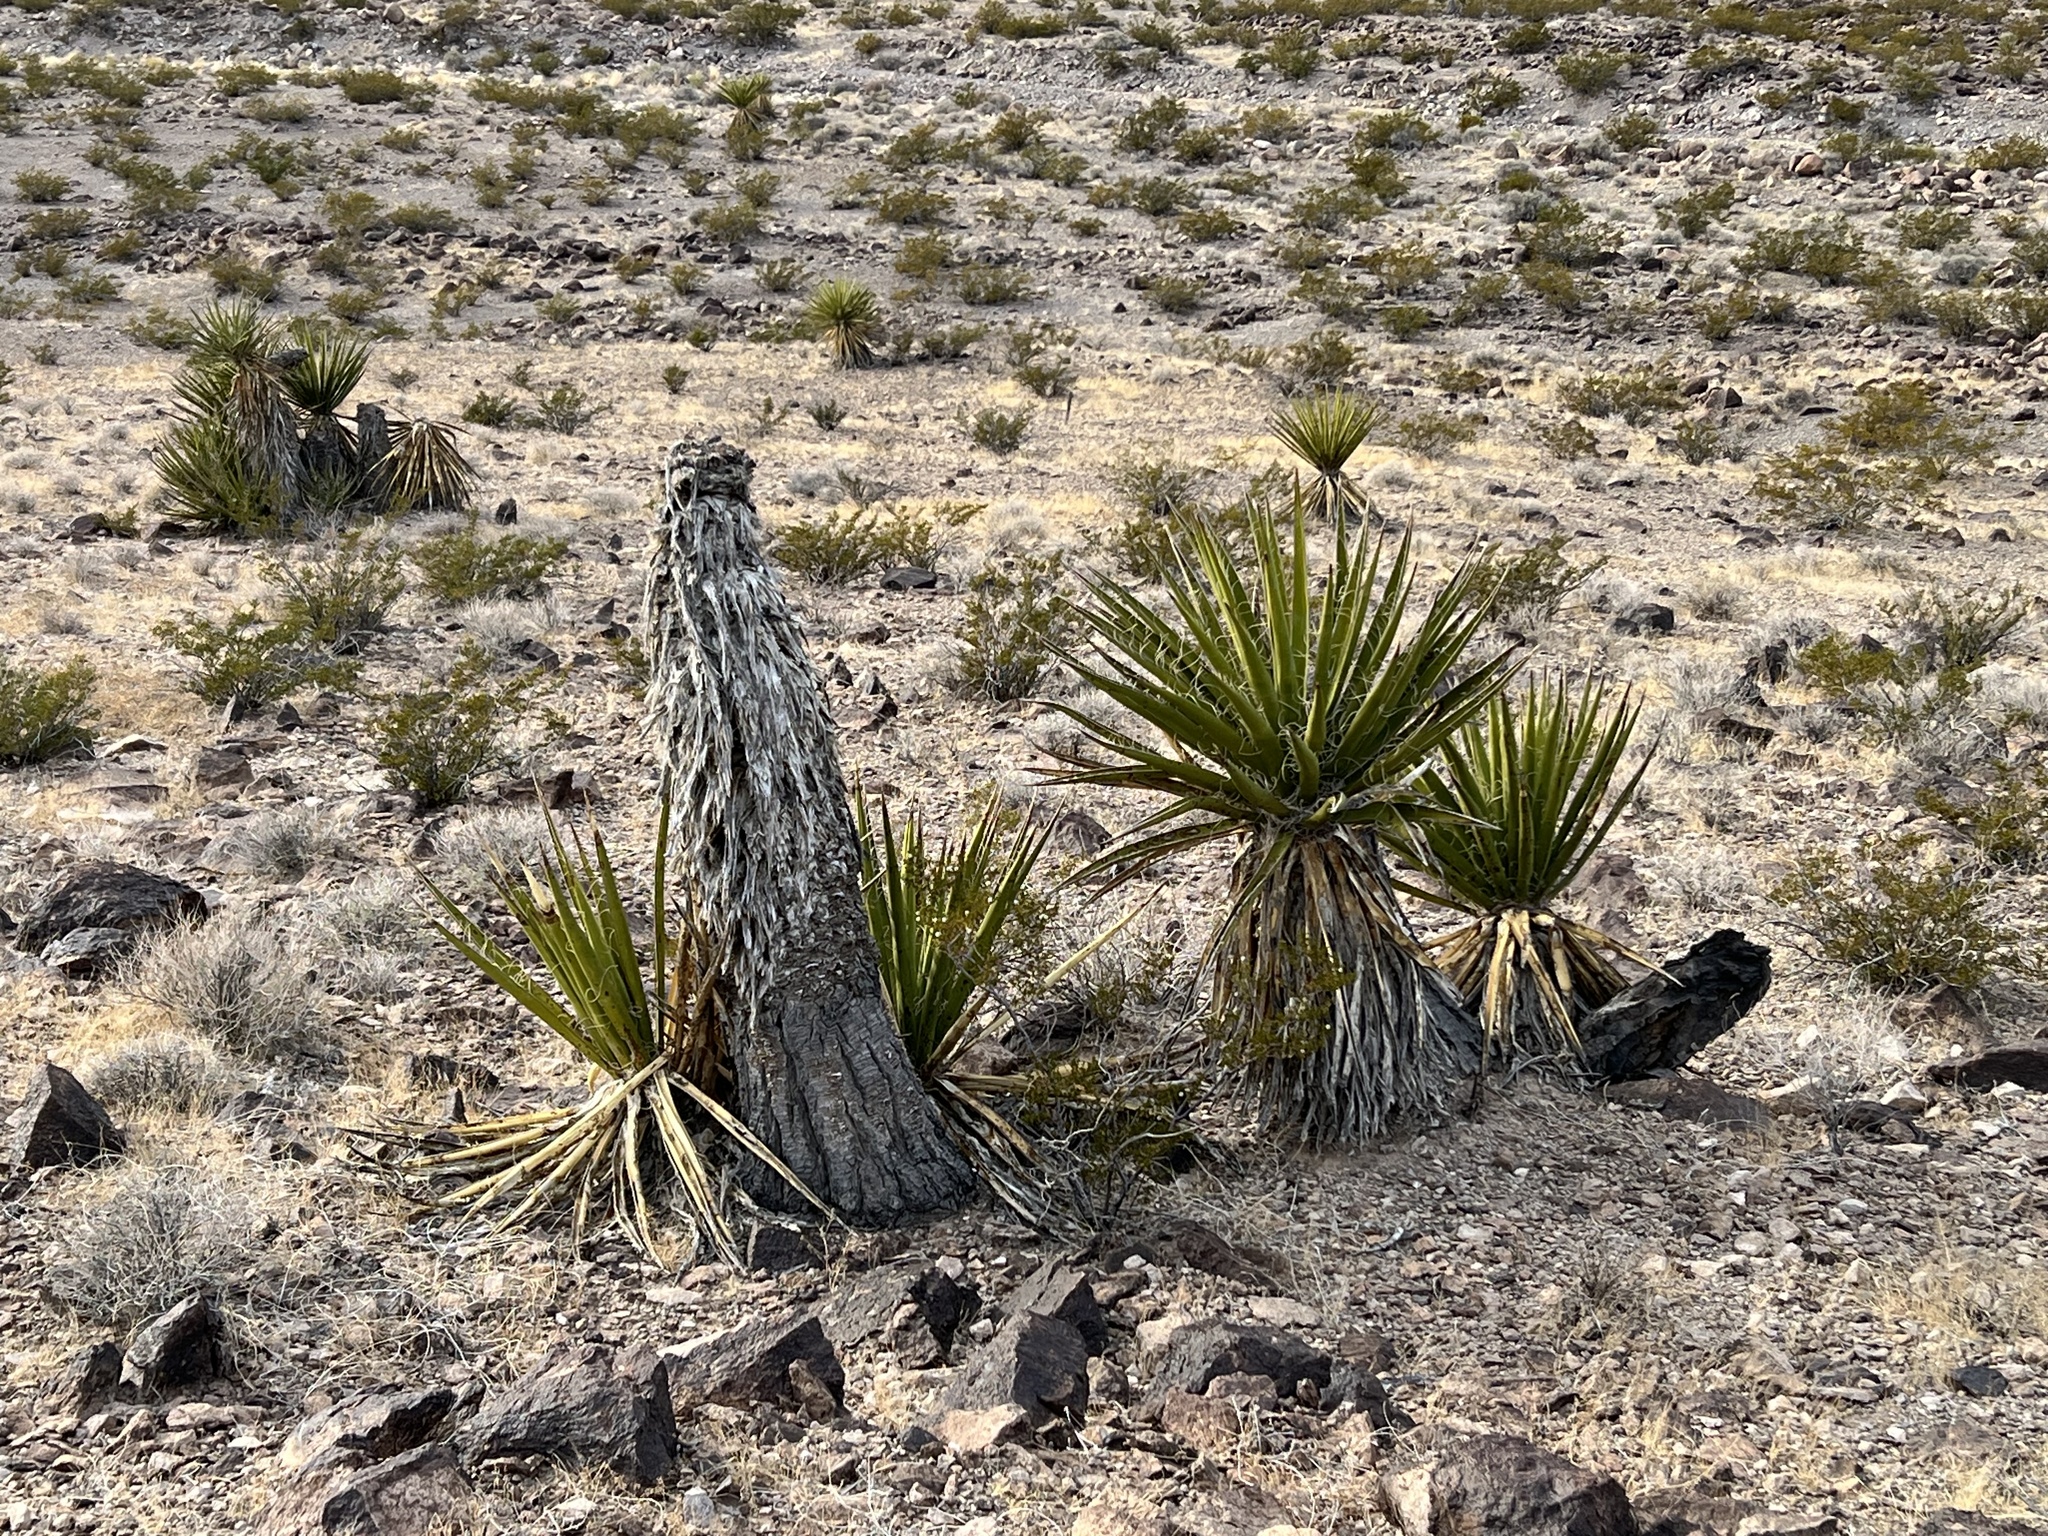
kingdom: Plantae
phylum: Tracheophyta
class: Liliopsida
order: Asparagales
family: Asparagaceae
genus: Yucca
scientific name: Yucca schidigera
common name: Mojave yucca
